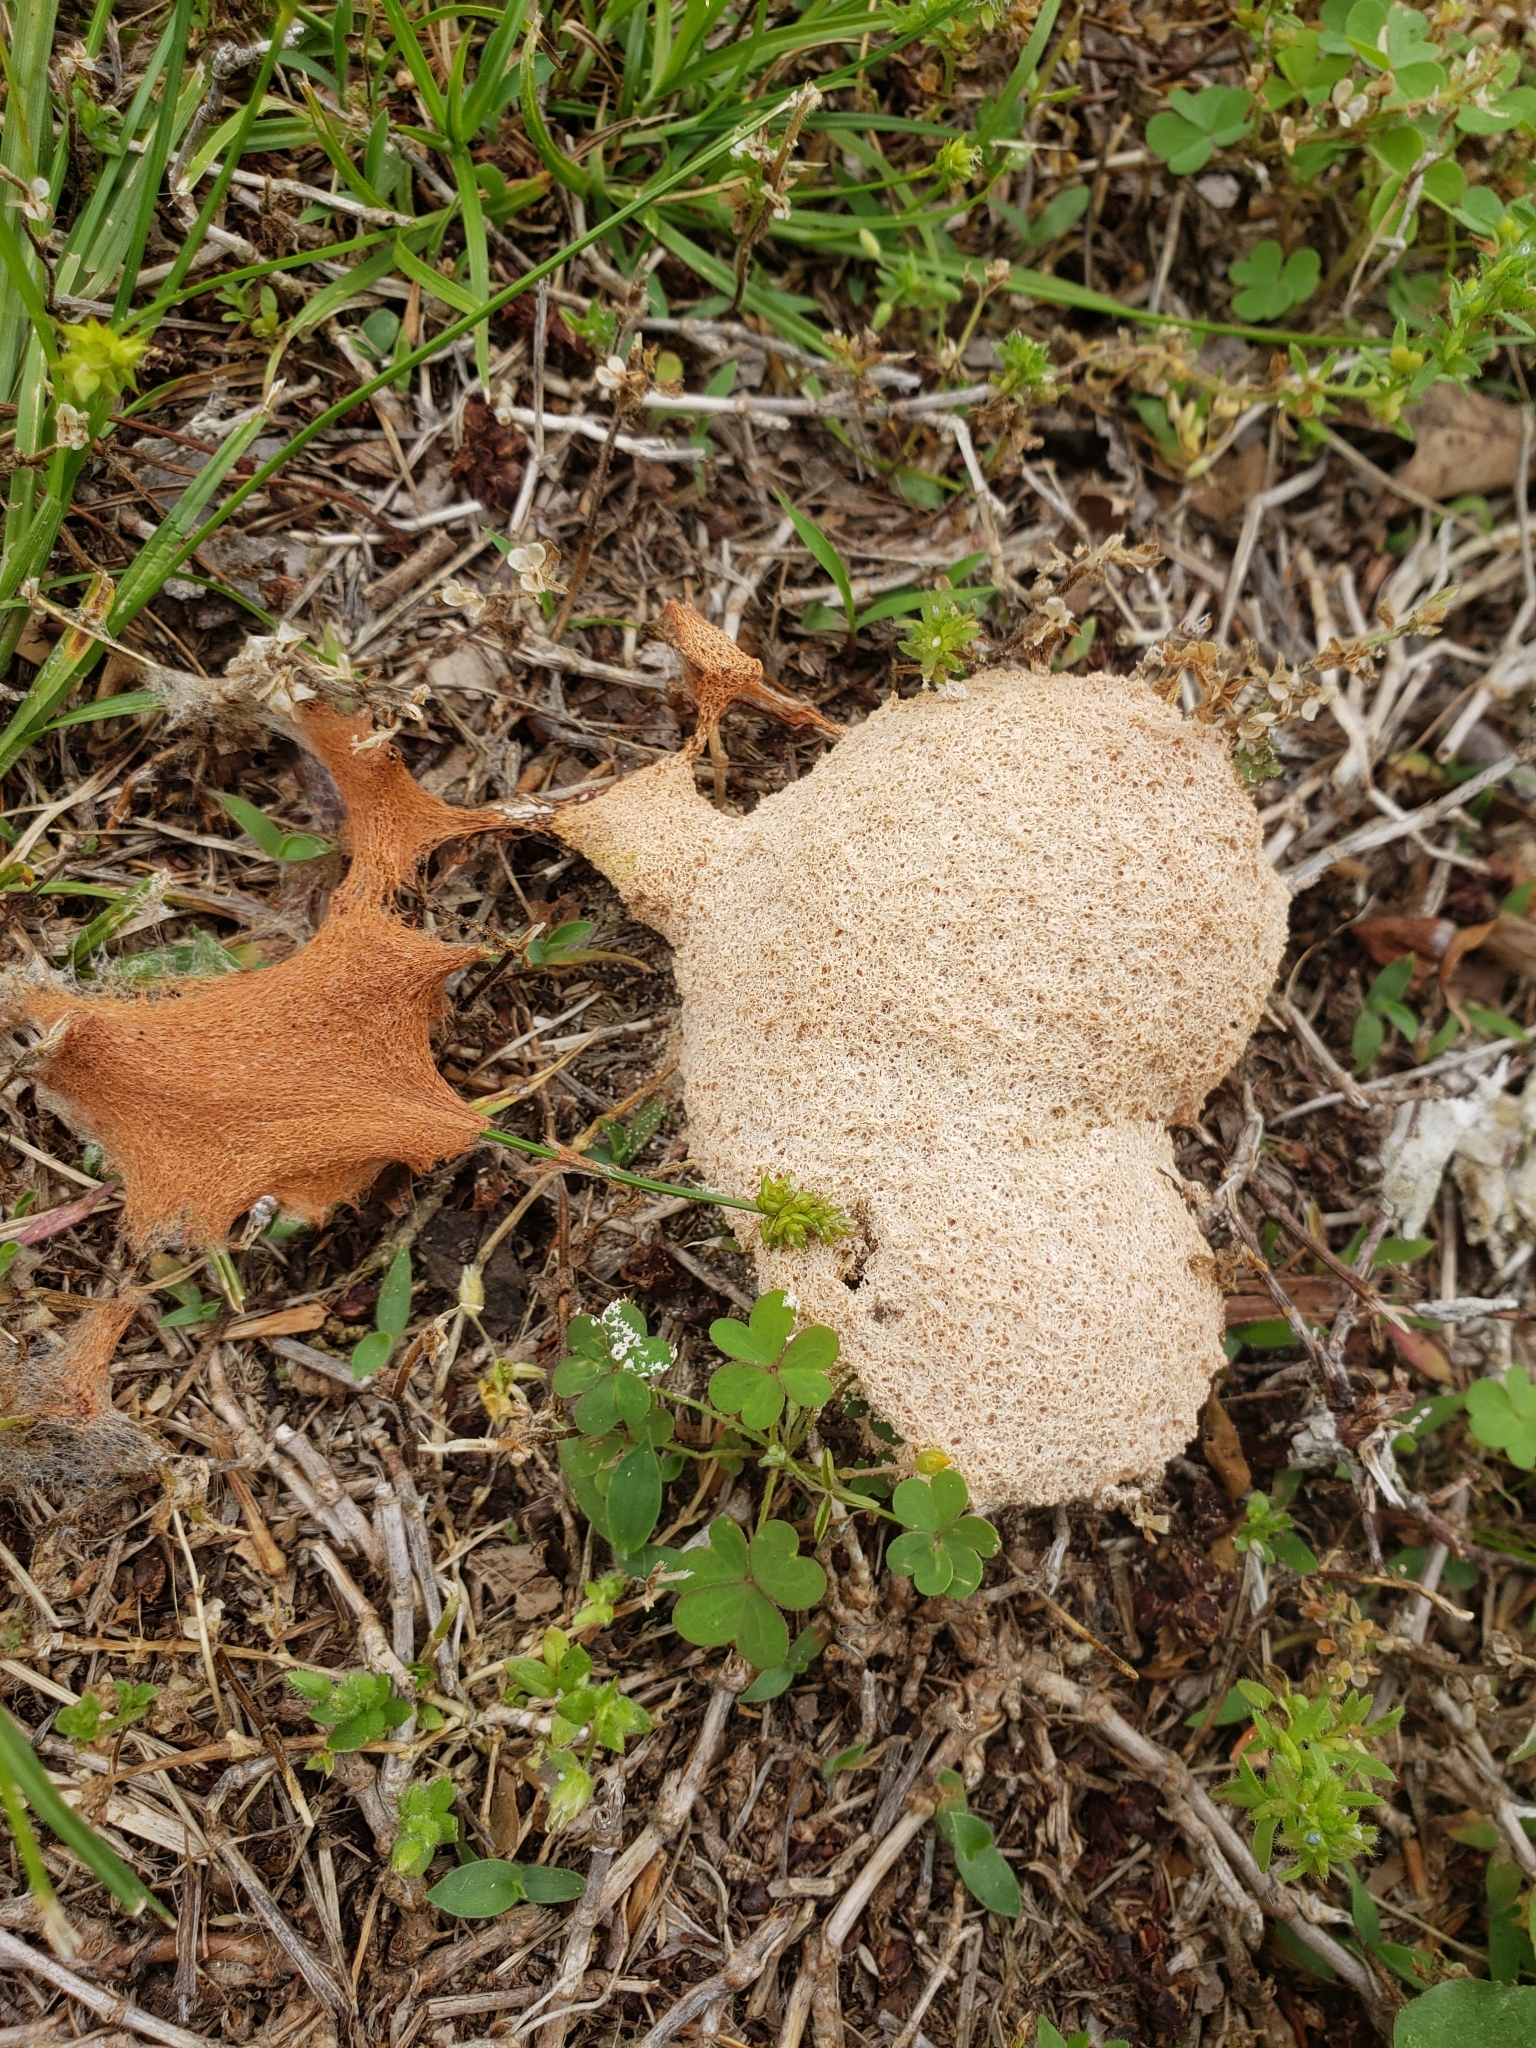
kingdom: Protozoa
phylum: Mycetozoa
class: Myxomycetes
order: Physarales
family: Physaraceae
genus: Fuligo
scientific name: Fuligo septica
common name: Dog vomit slime mold
